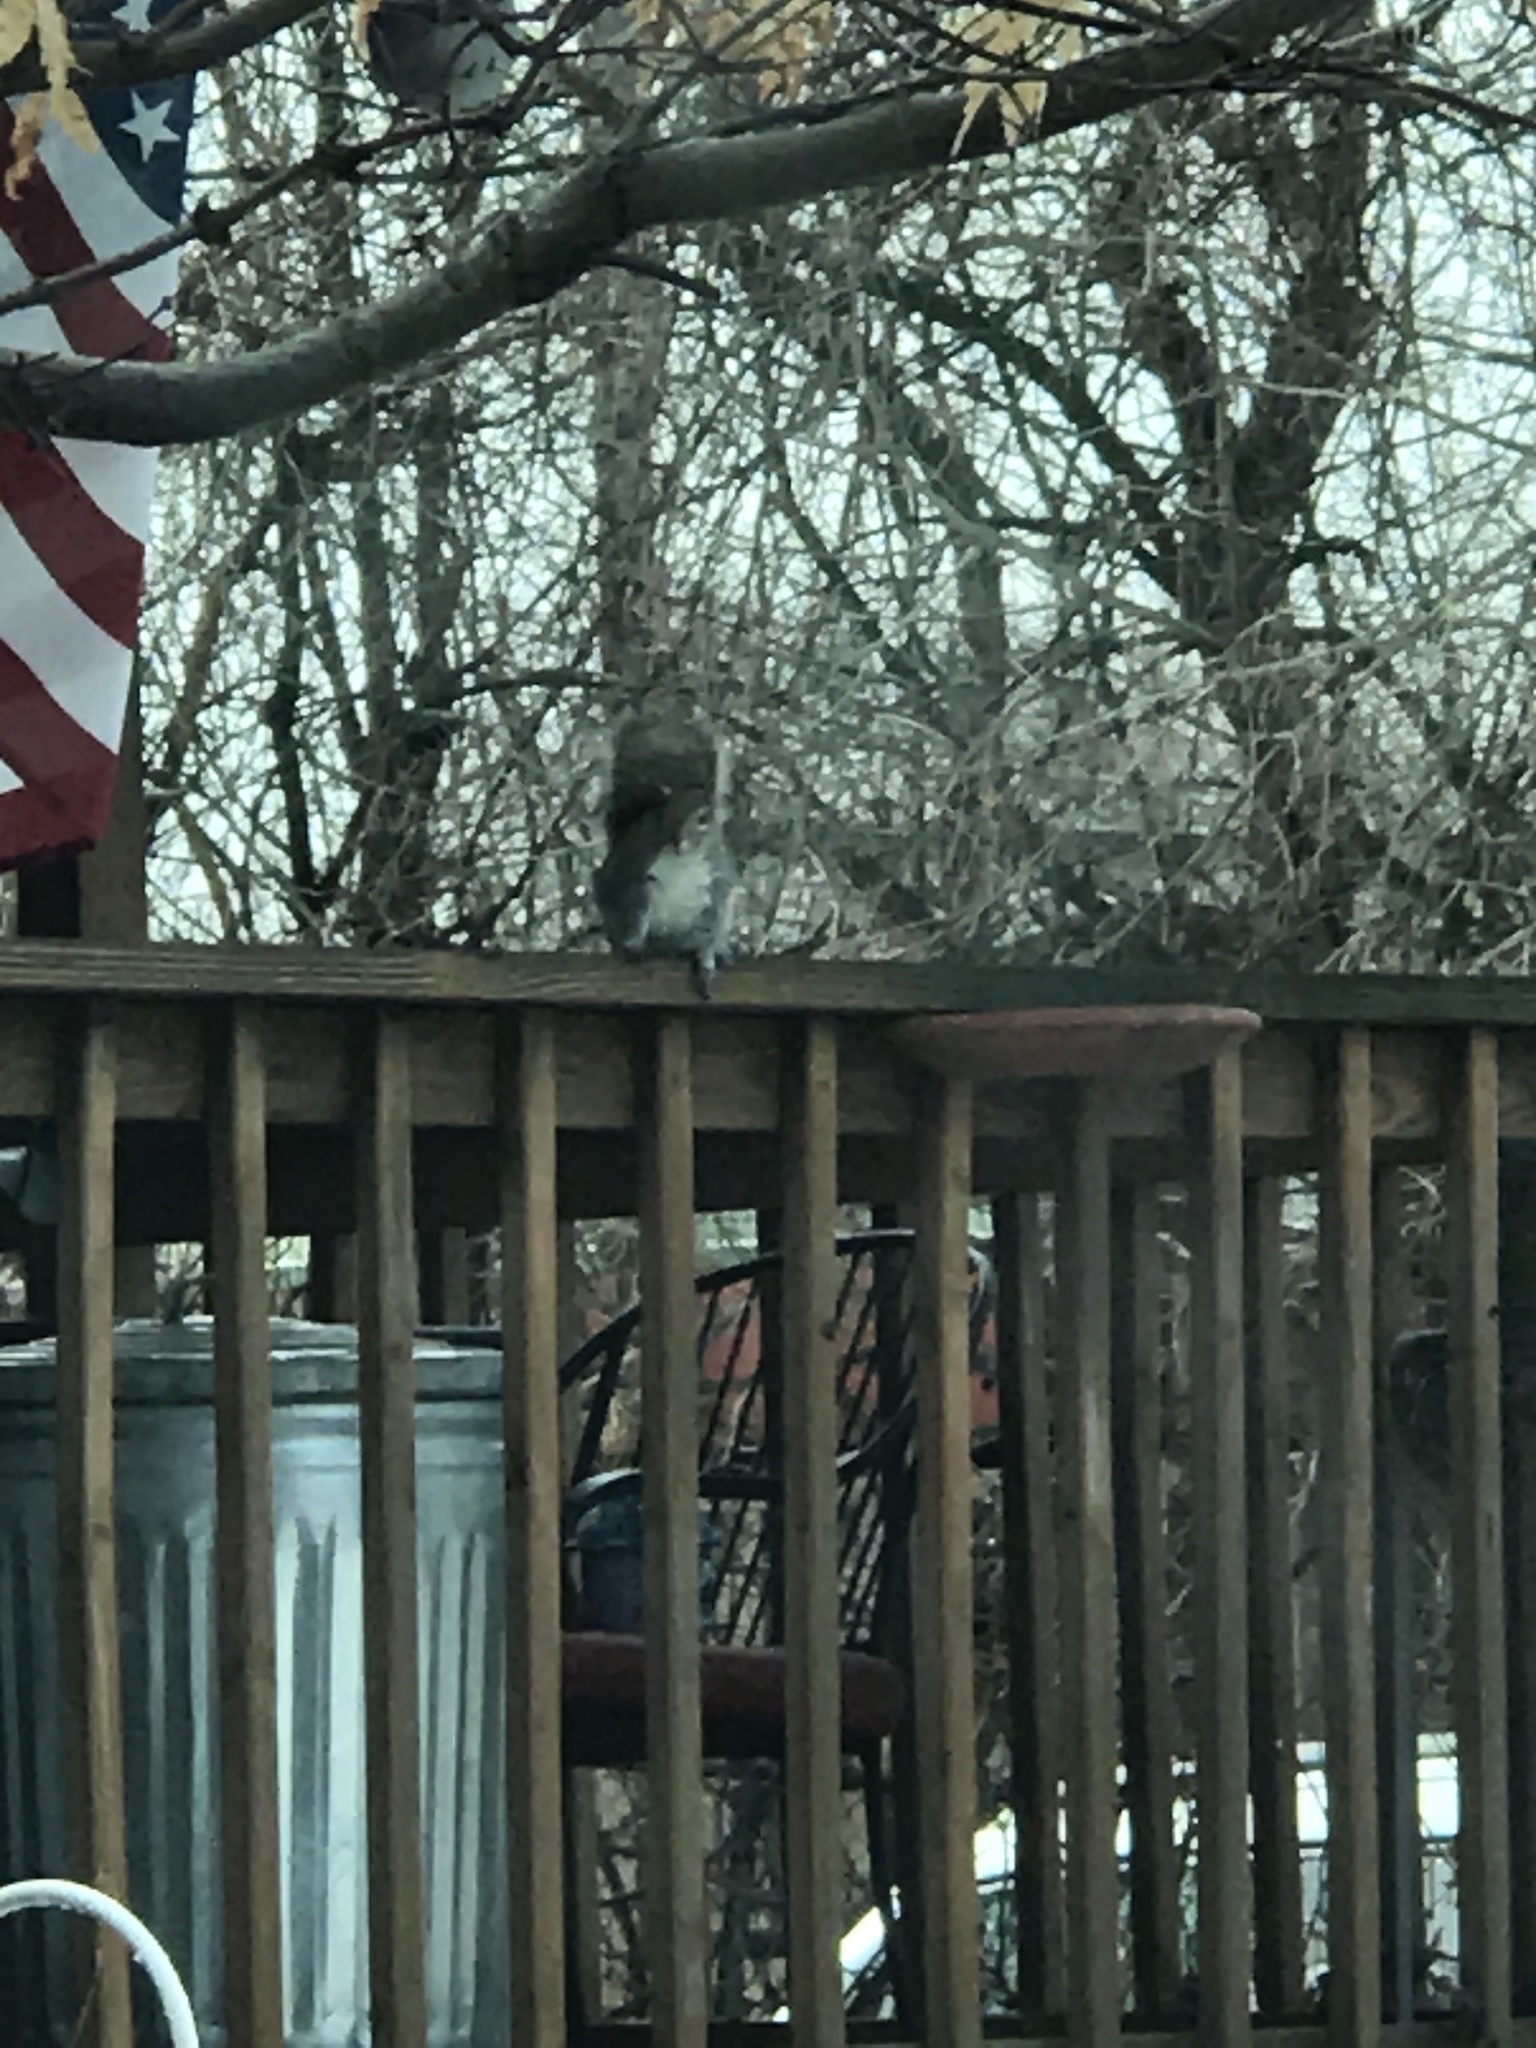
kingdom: Animalia
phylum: Chordata
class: Mammalia
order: Rodentia
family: Sciuridae
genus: Sciurus
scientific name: Sciurus carolinensis
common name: Eastern gray squirrel
